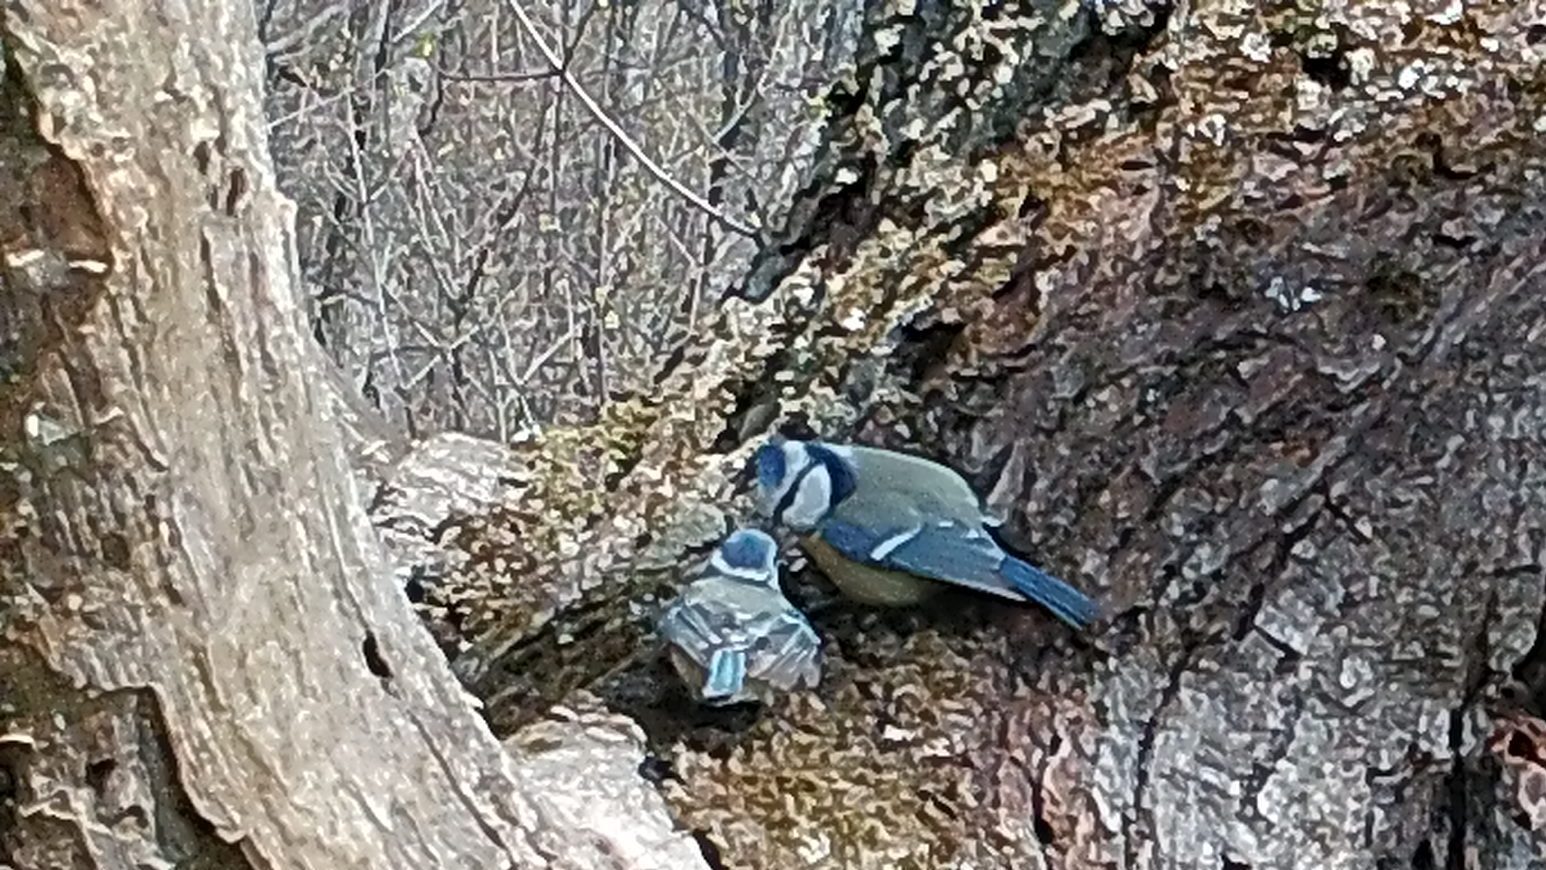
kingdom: Animalia
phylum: Chordata
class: Aves
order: Passeriformes
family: Paridae
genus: Cyanistes
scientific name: Cyanistes caeruleus
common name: Eurasian blue tit
